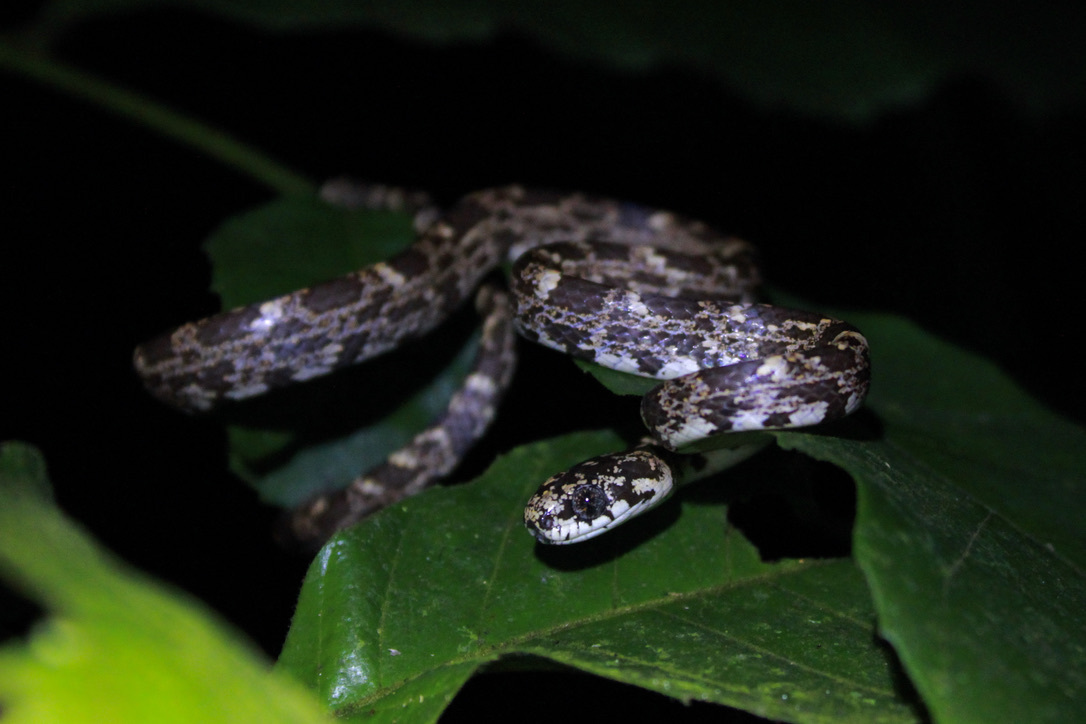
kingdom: Animalia
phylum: Chordata
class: Squamata
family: Colubridae
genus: Sibon
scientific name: Sibon nebulatus
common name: Cloudy snail-eating snake
